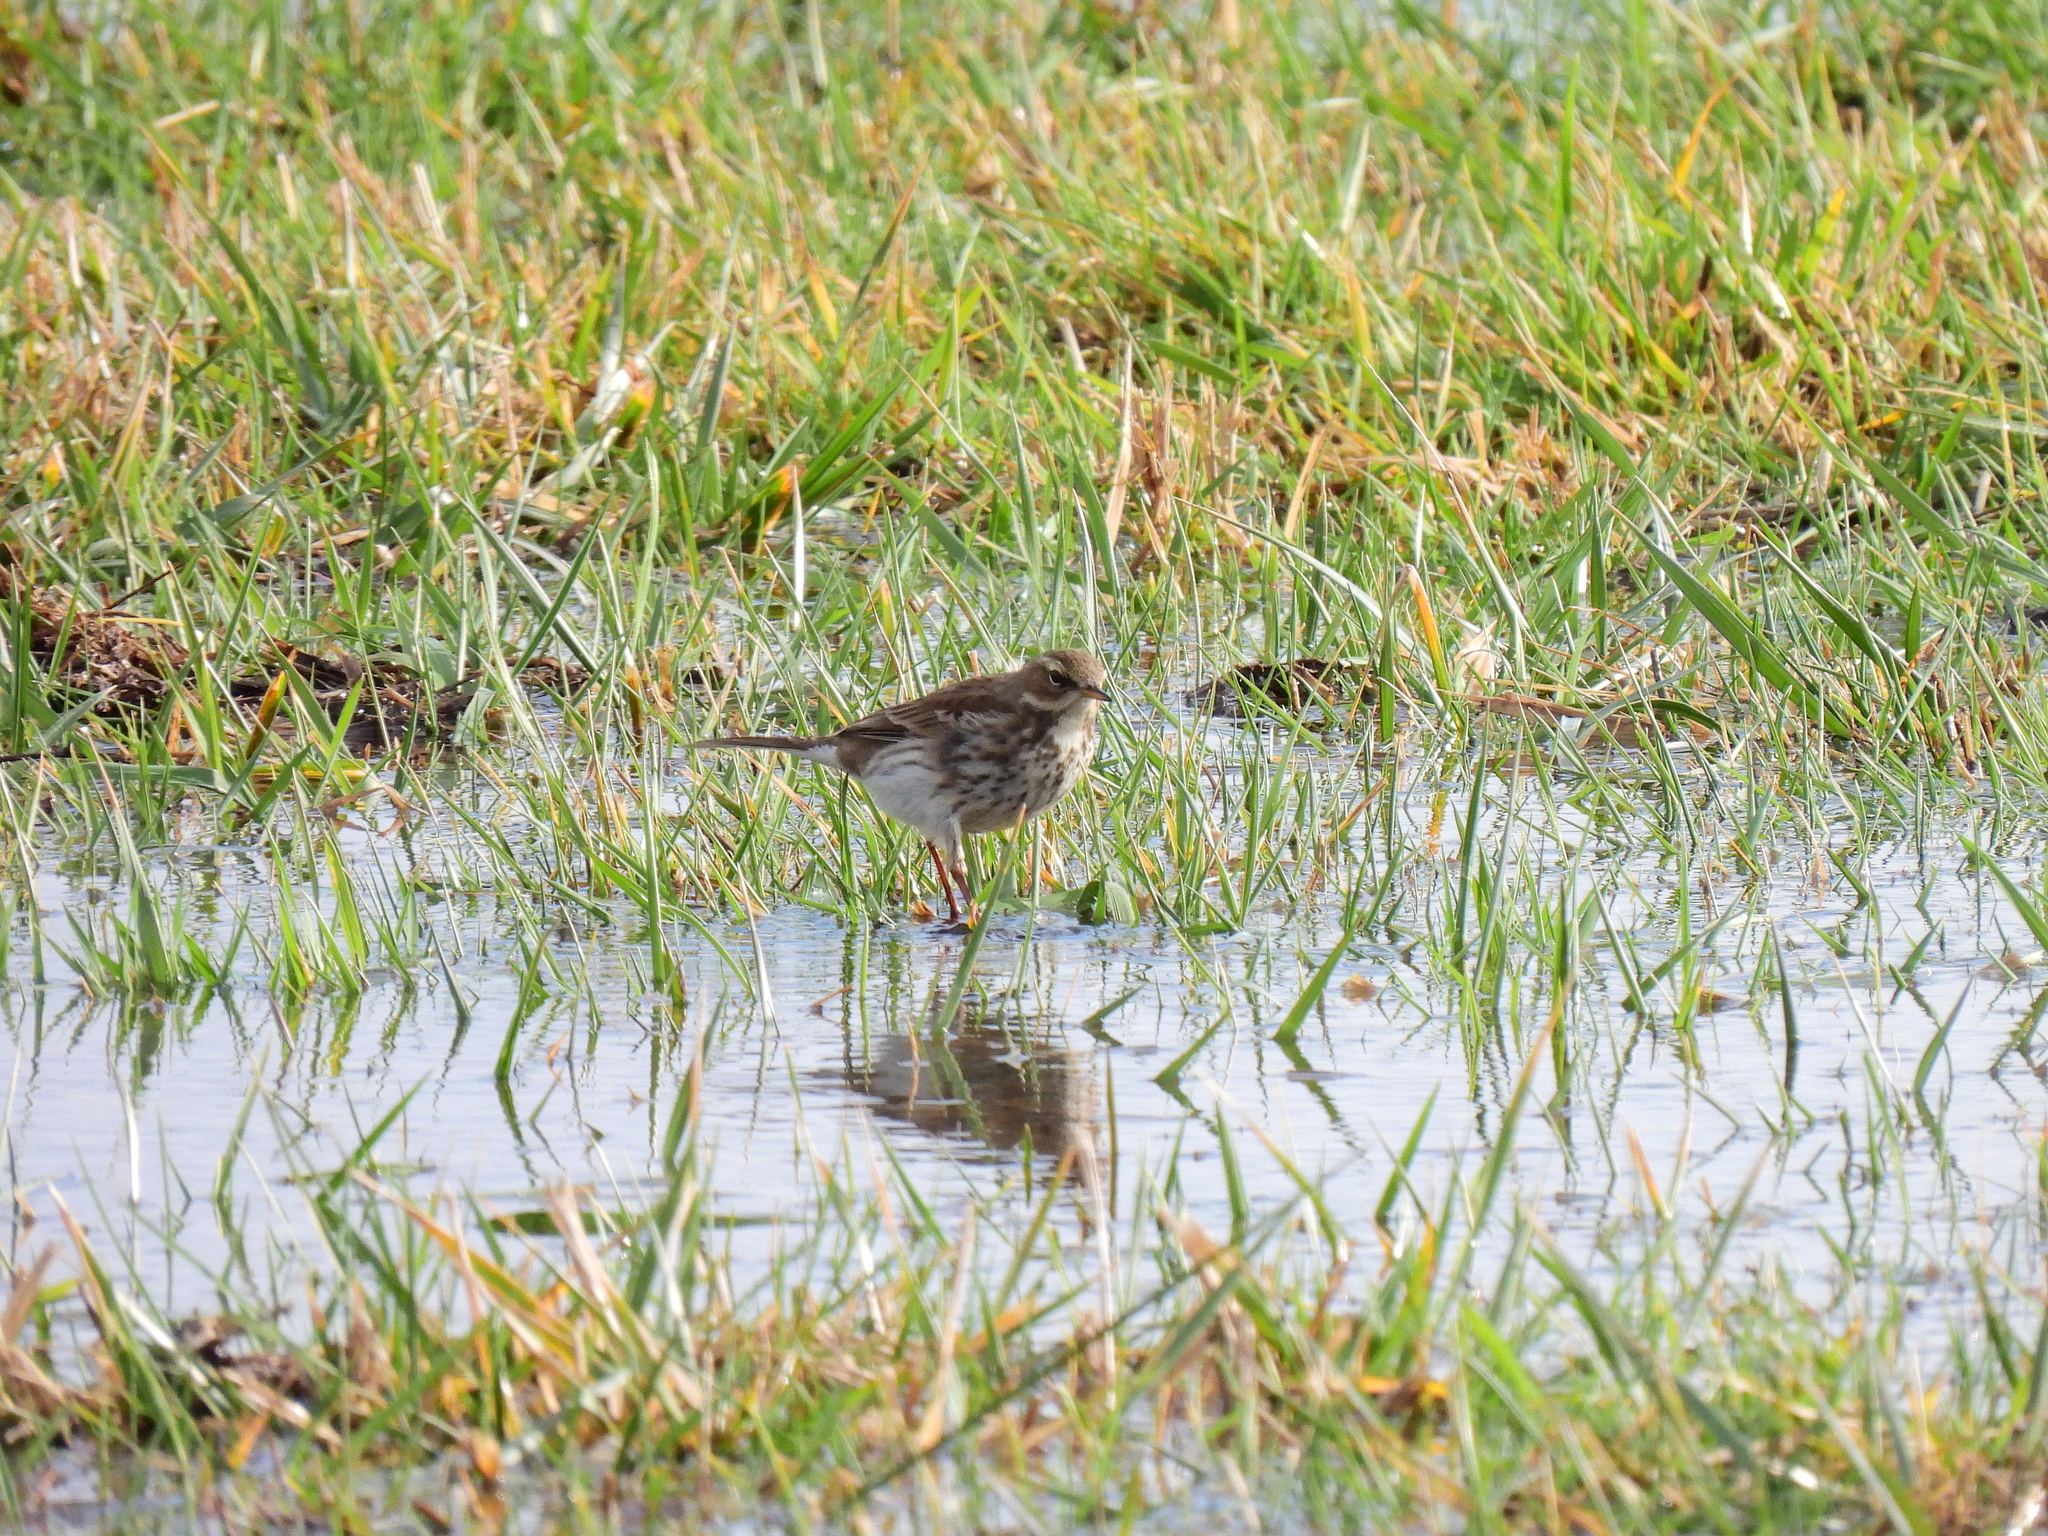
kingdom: Animalia
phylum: Chordata
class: Aves
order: Passeriformes
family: Motacillidae
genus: Anthus
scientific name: Anthus spinoletta
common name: Water pipit
